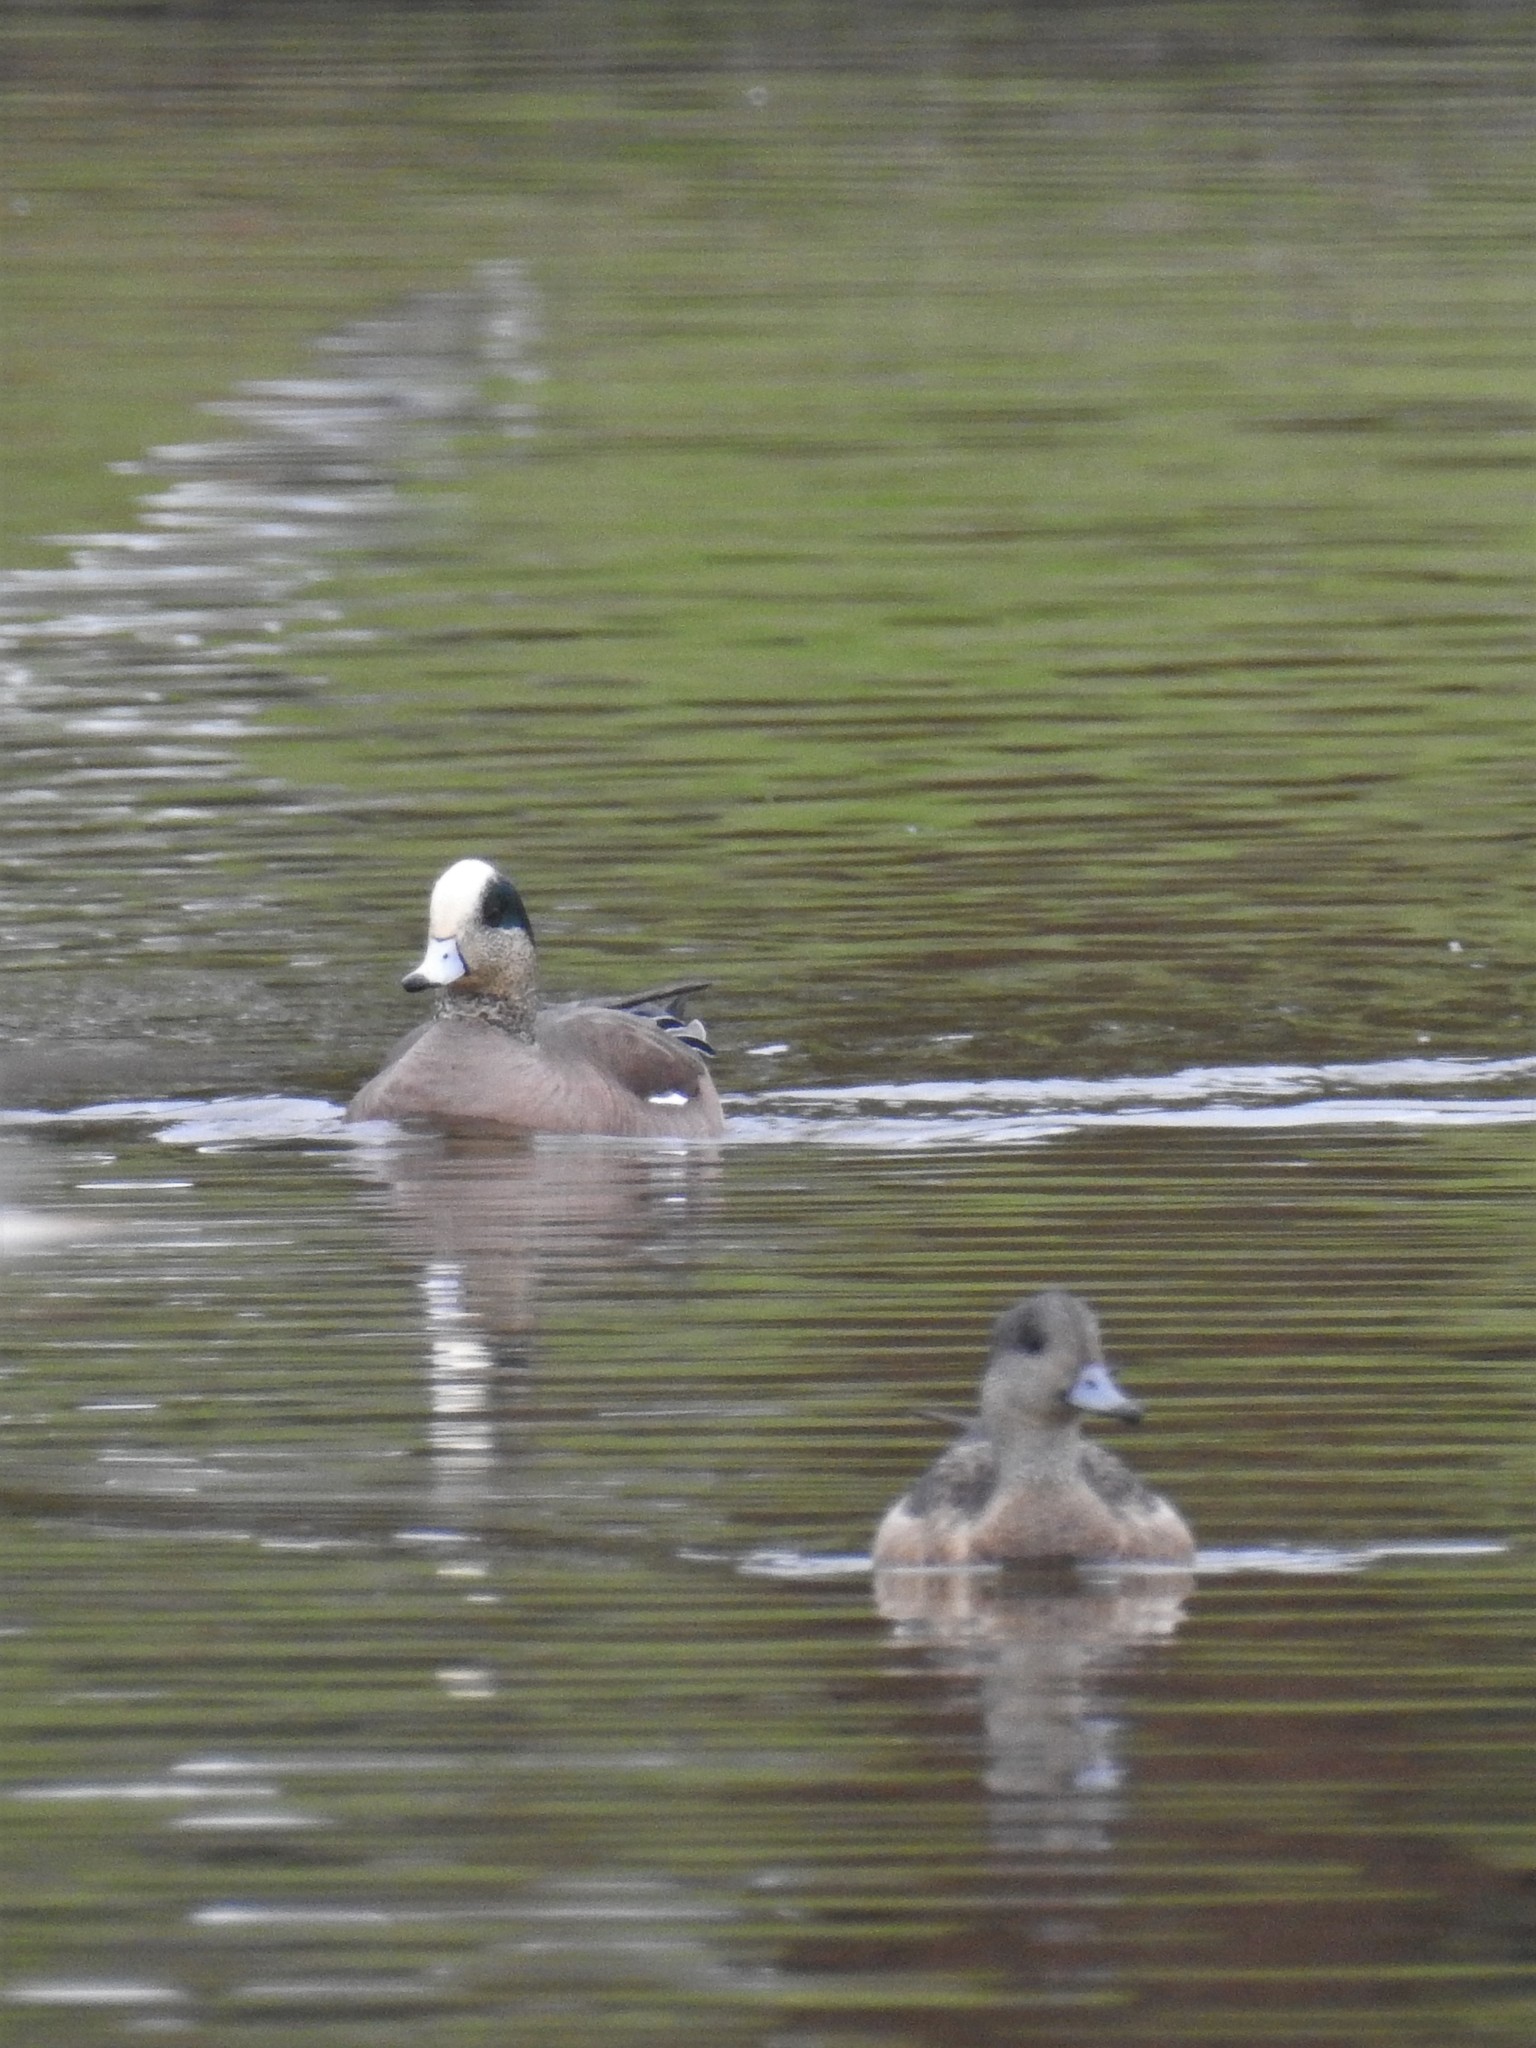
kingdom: Animalia
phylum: Chordata
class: Aves
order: Anseriformes
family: Anatidae
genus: Mareca
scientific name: Mareca americana
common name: American wigeon
